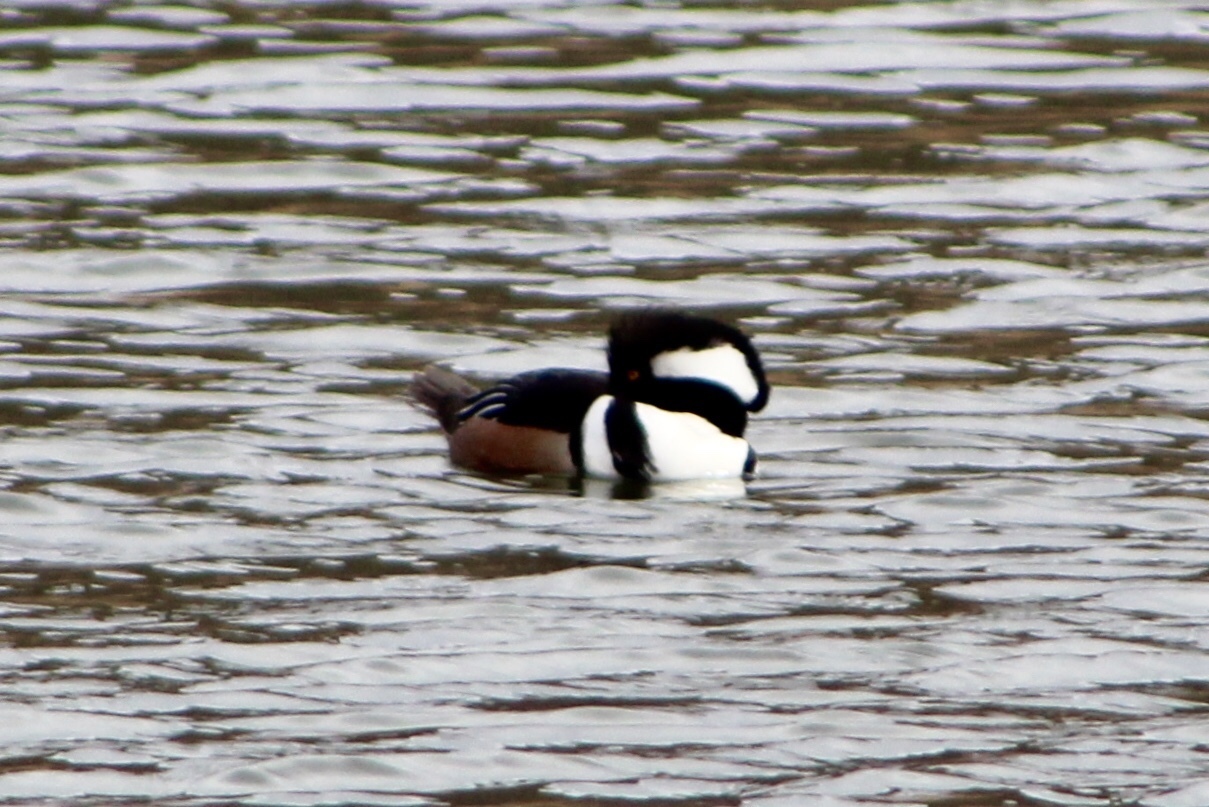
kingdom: Animalia
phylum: Chordata
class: Aves
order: Anseriformes
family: Anatidae
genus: Lophodytes
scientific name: Lophodytes cucullatus
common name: Hooded merganser
